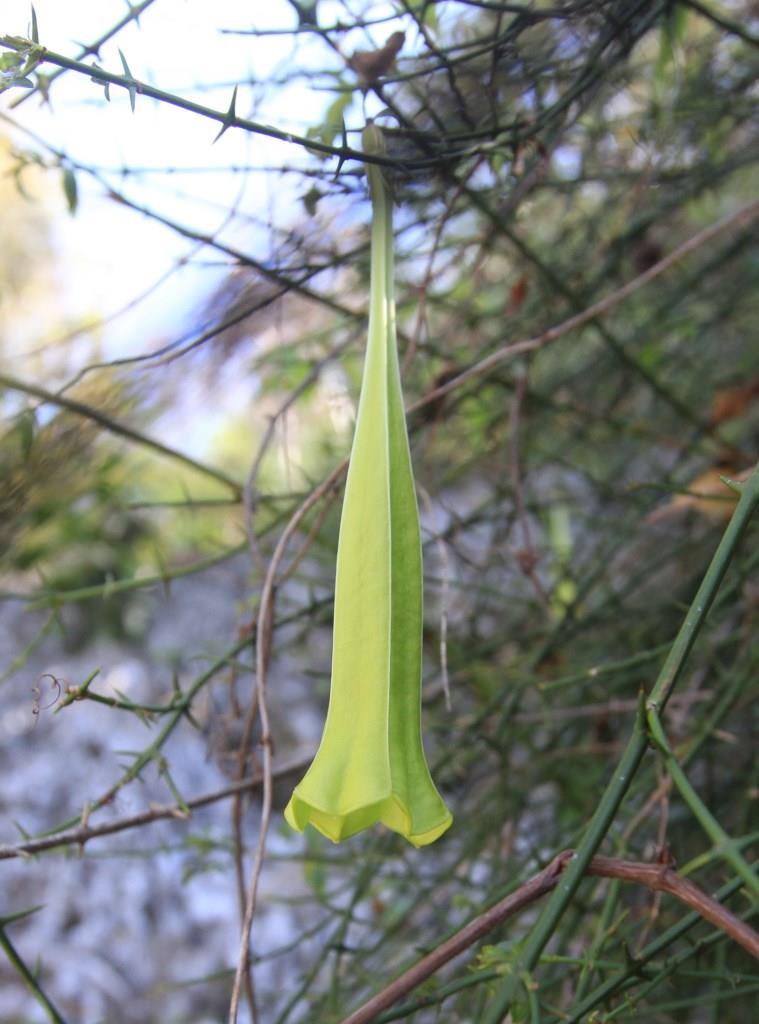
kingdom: Plantae
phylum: Tracheophyta
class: Magnoliopsida
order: Gentianales
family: Rubiaceae
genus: Catesbaea
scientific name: Catesbaea ekmaniana
